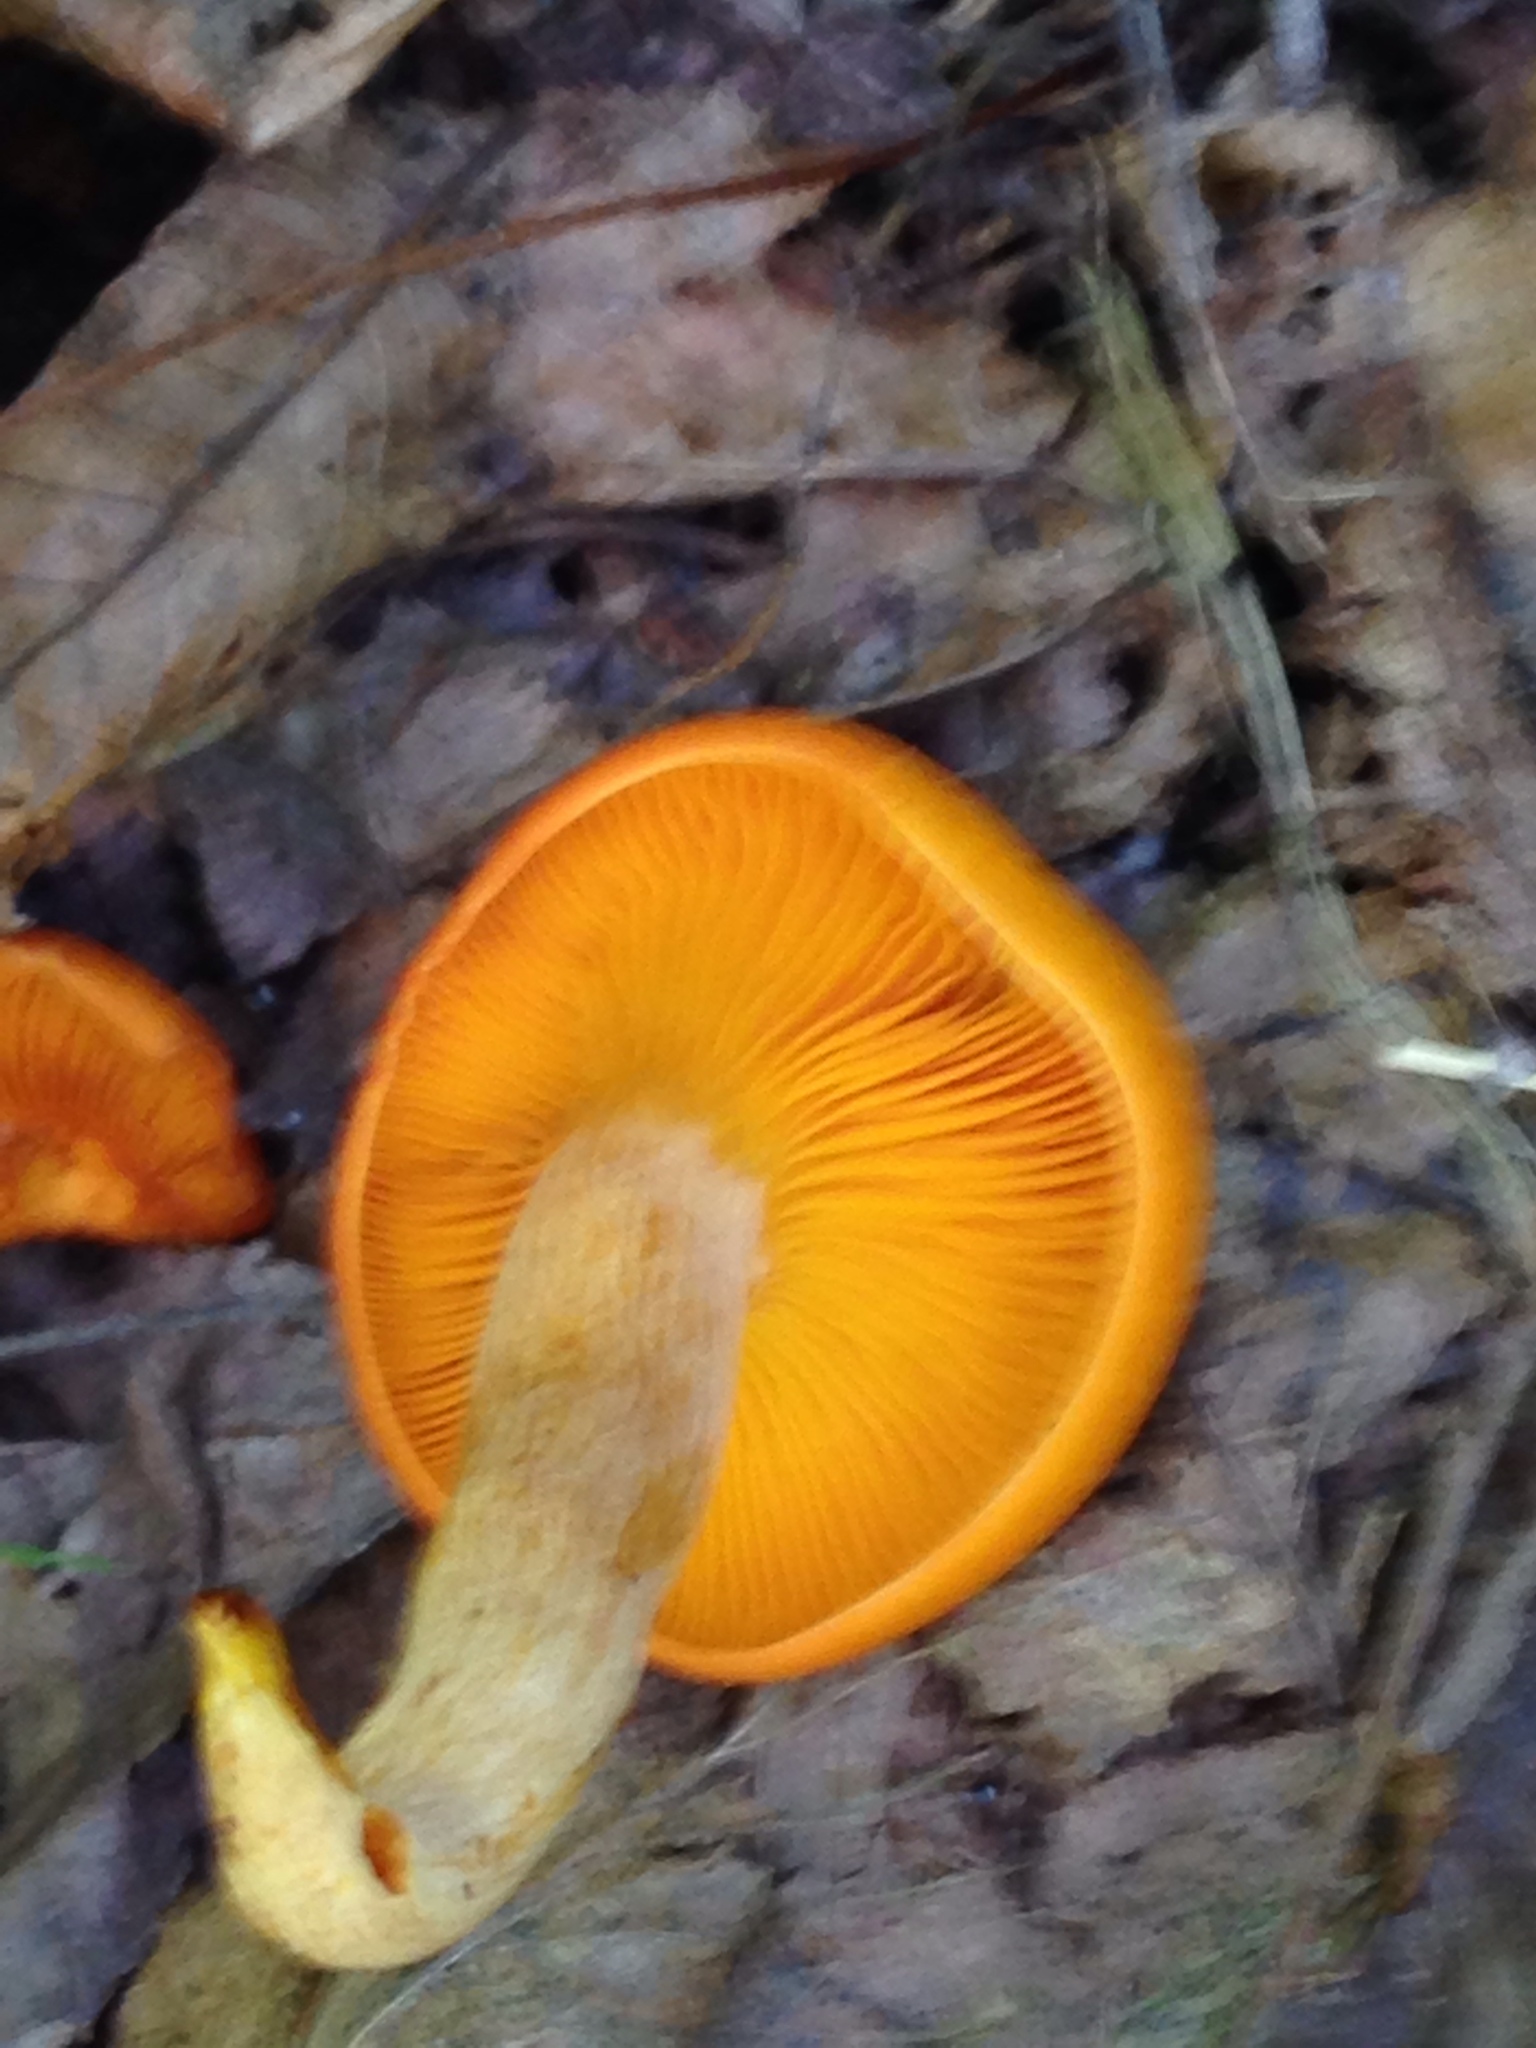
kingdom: Fungi
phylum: Basidiomycota
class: Agaricomycetes
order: Agaricales
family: Omphalotaceae
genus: Omphalotus
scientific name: Omphalotus illudens
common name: Jack o lantern
